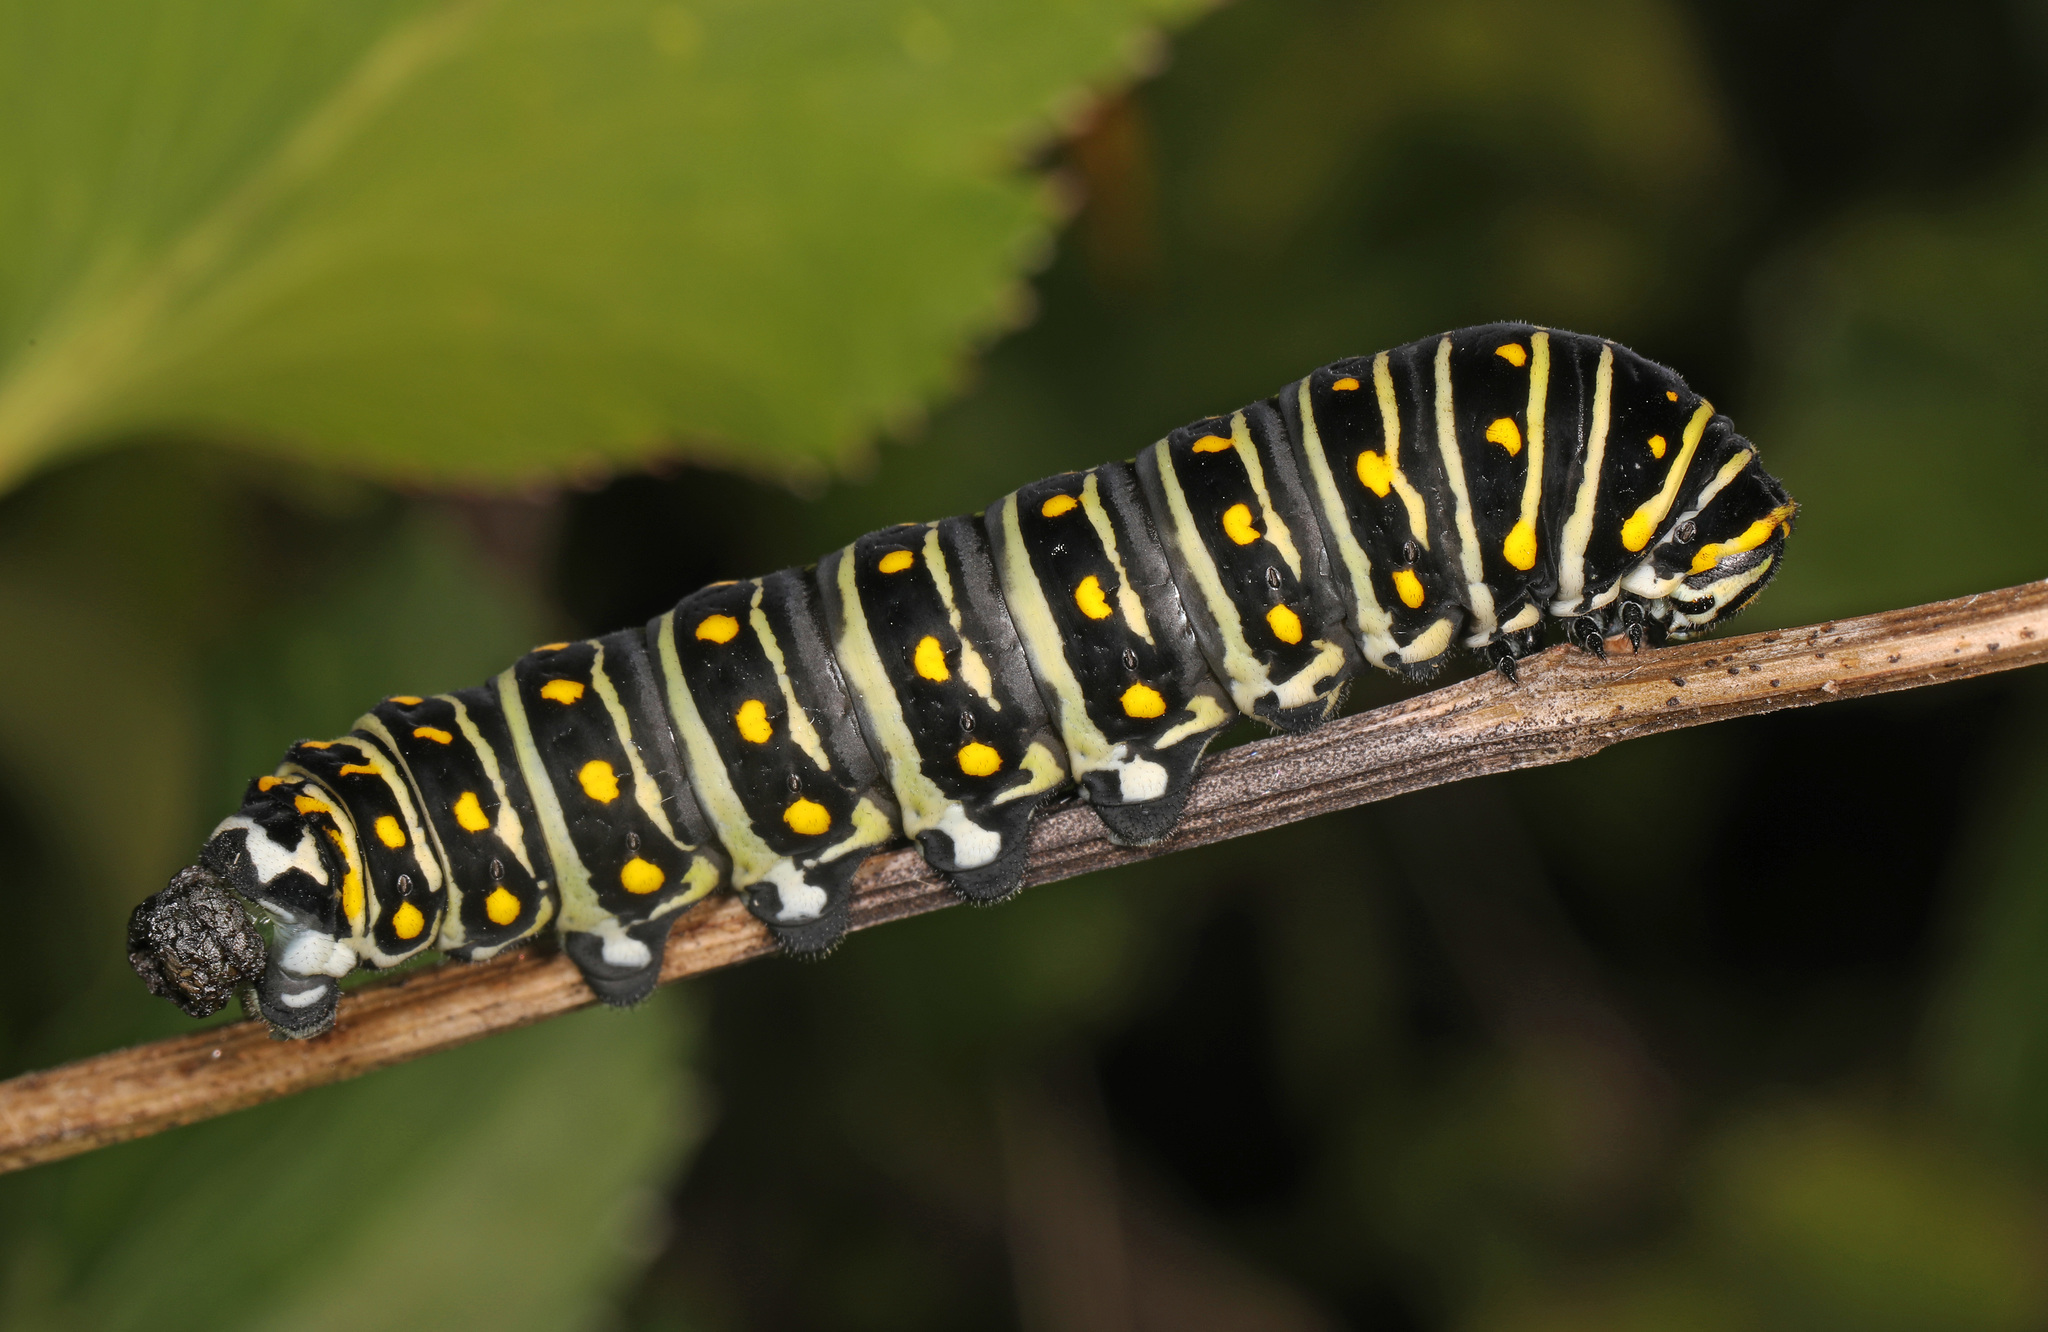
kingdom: Animalia
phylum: Arthropoda
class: Insecta
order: Lepidoptera
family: Papilionidae
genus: Papilio
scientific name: Papilio polyxenes
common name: Black swallowtail
